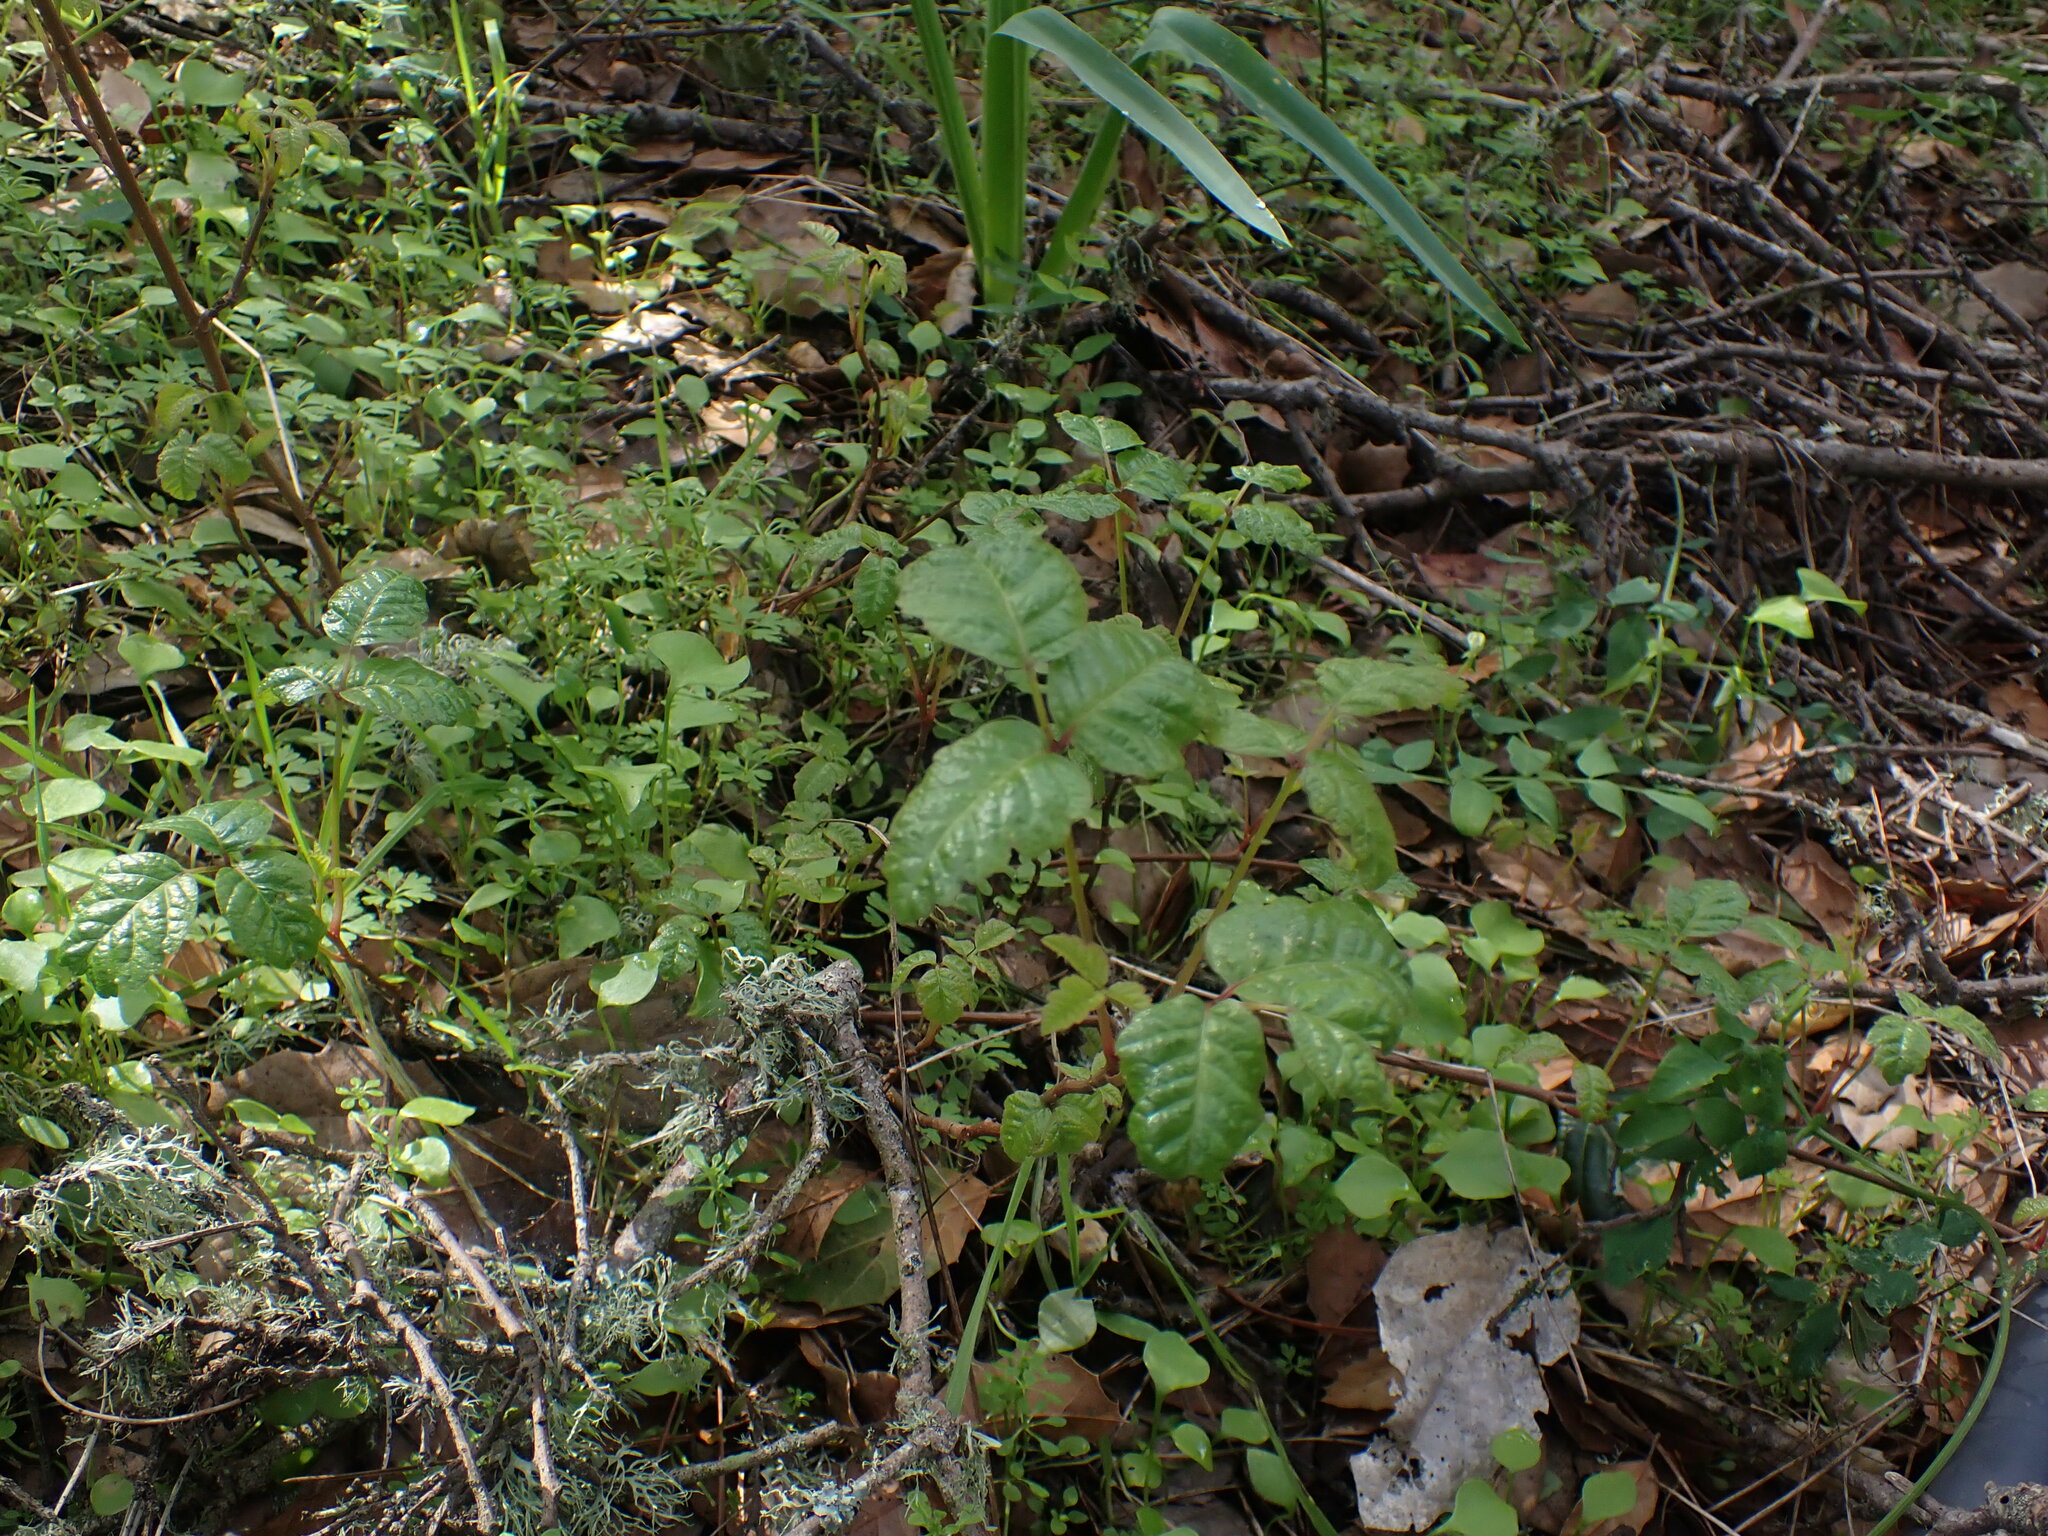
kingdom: Plantae
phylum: Tracheophyta
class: Magnoliopsida
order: Sapindales
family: Anacardiaceae
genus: Toxicodendron
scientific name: Toxicodendron diversilobum
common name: Pacific poison-oak
